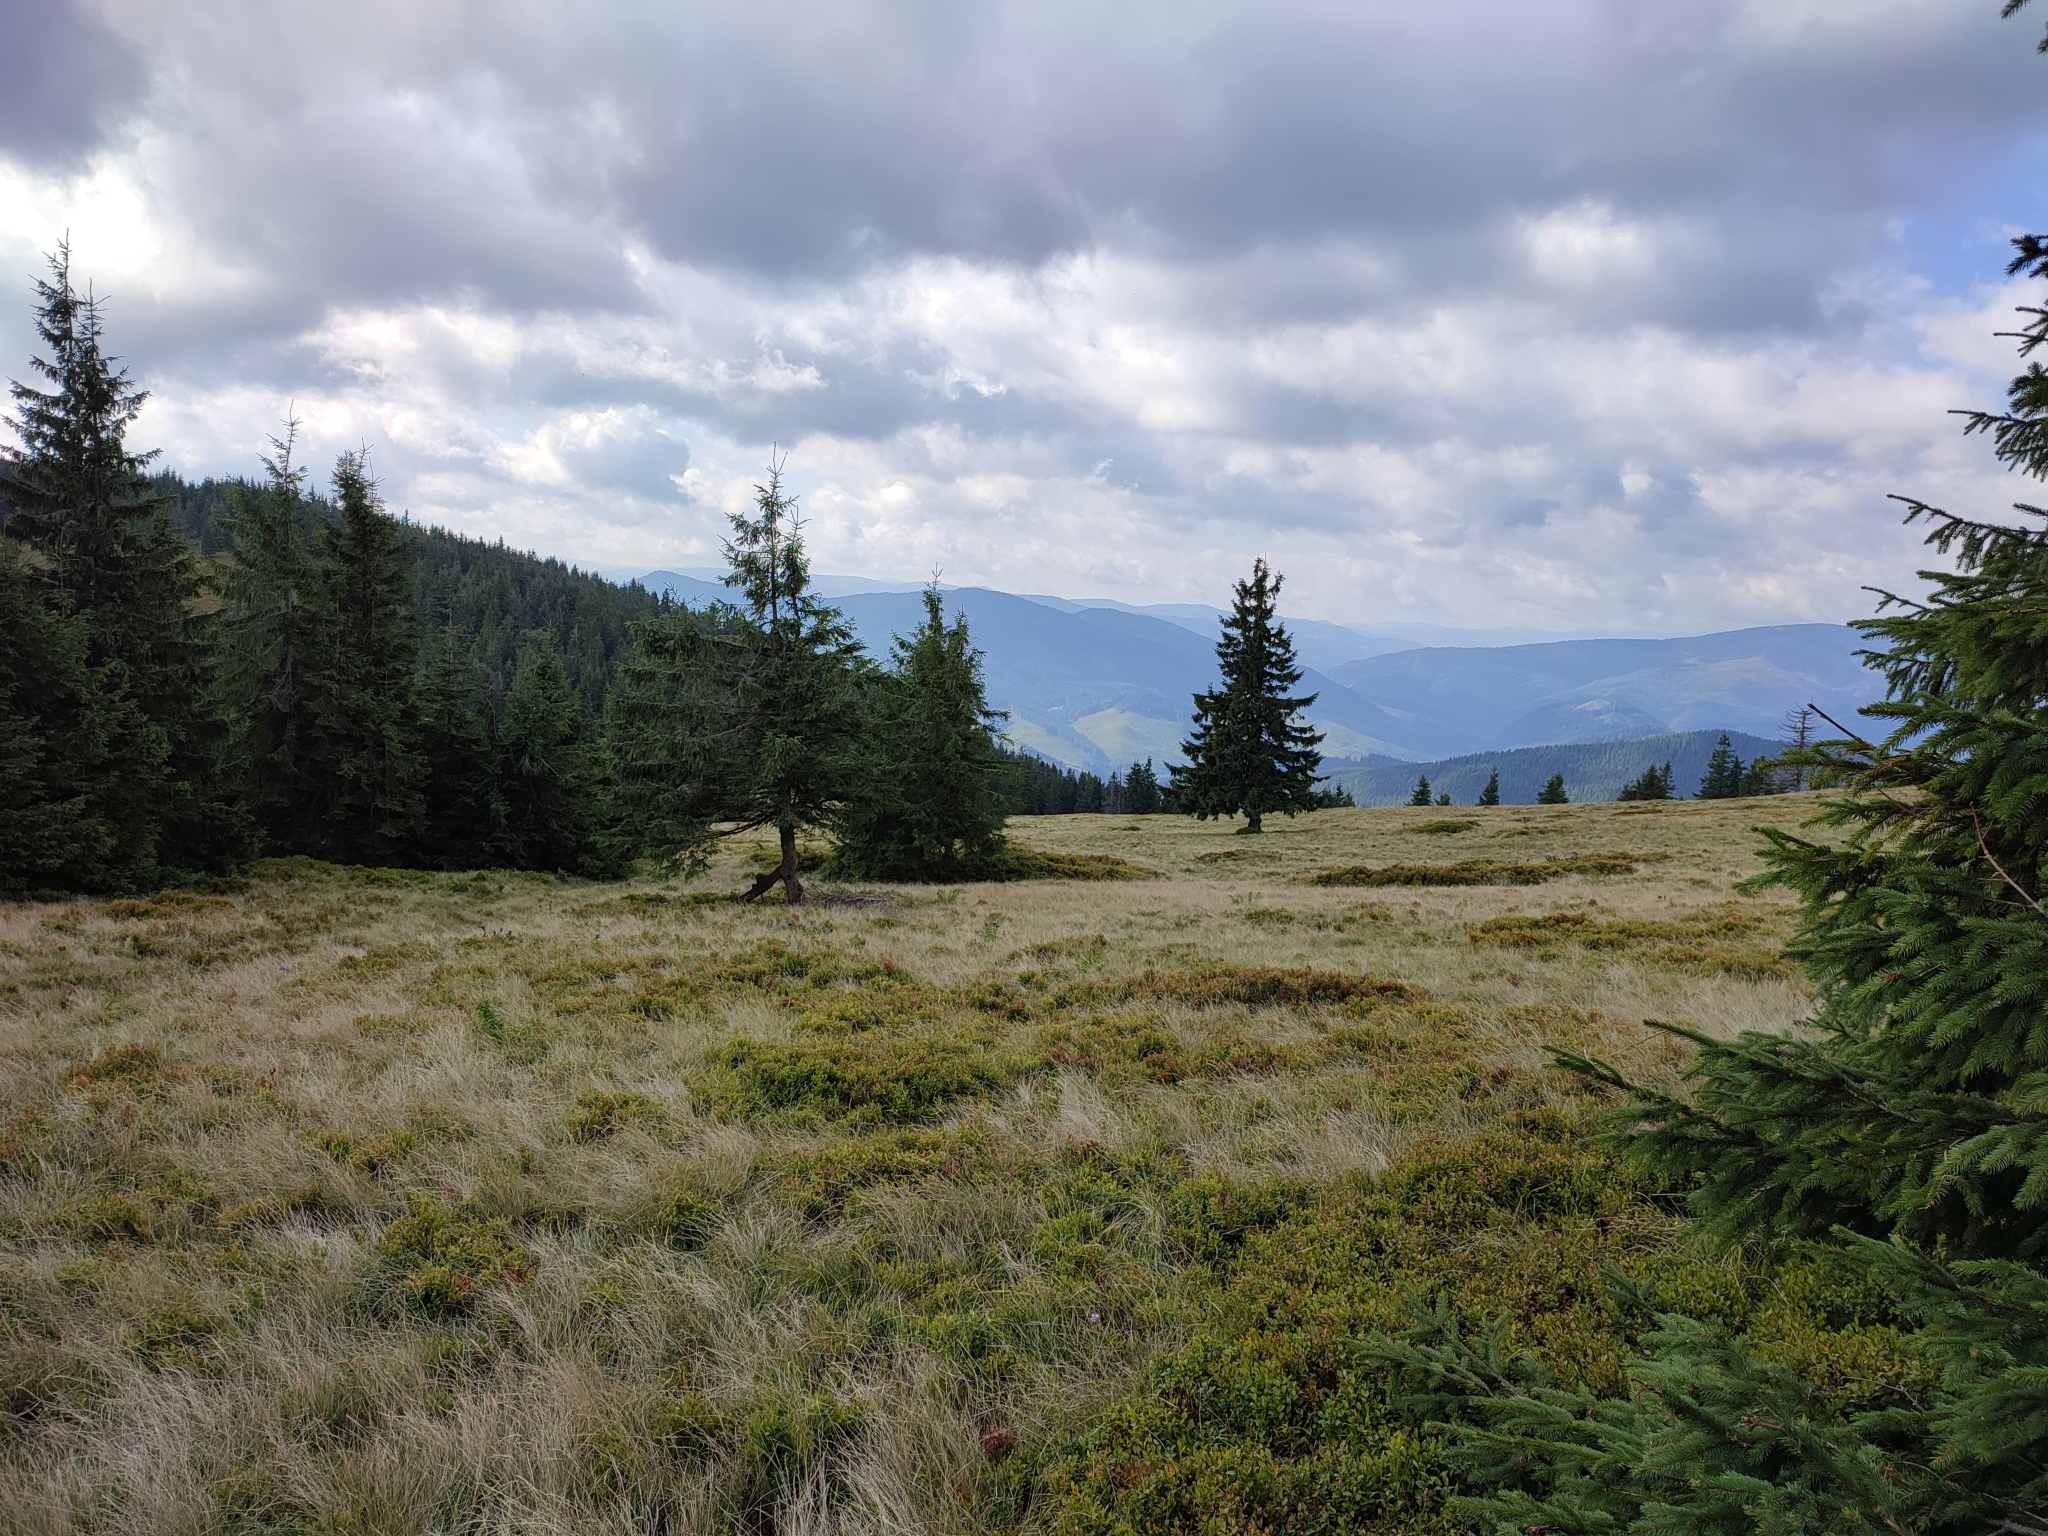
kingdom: Plantae
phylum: Tracheophyta
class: Pinopsida
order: Pinales
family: Pinaceae
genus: Picea
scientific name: Picea abies
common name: Norway spruce
